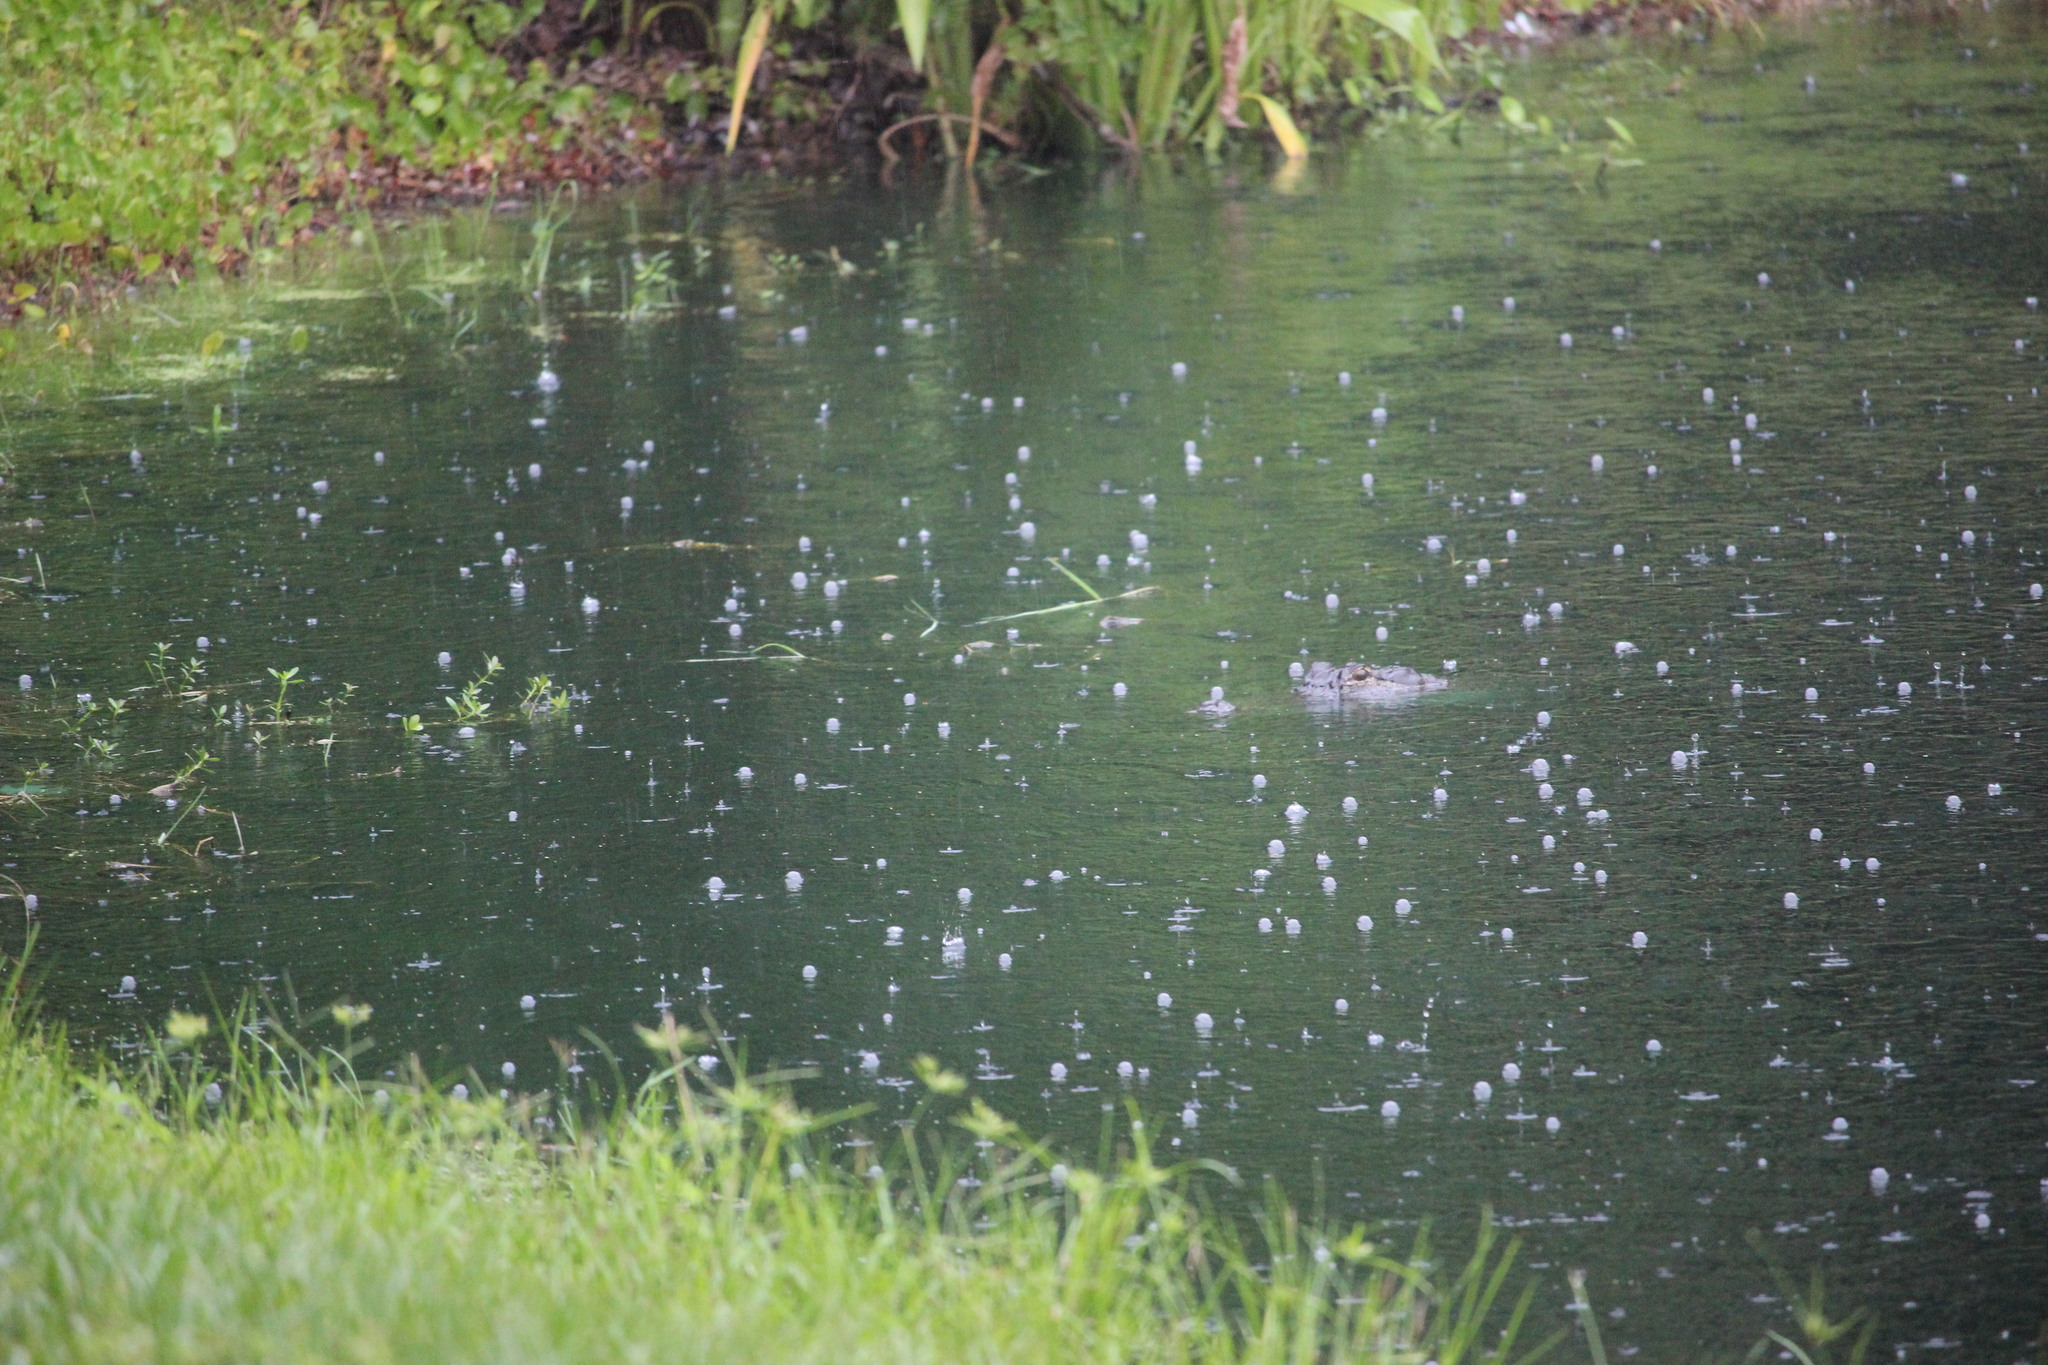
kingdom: Animalia
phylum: Chordata
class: Crocodylia
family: Alligatoridae
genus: Alligator
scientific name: Alligator mississippiensis
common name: American alligator
